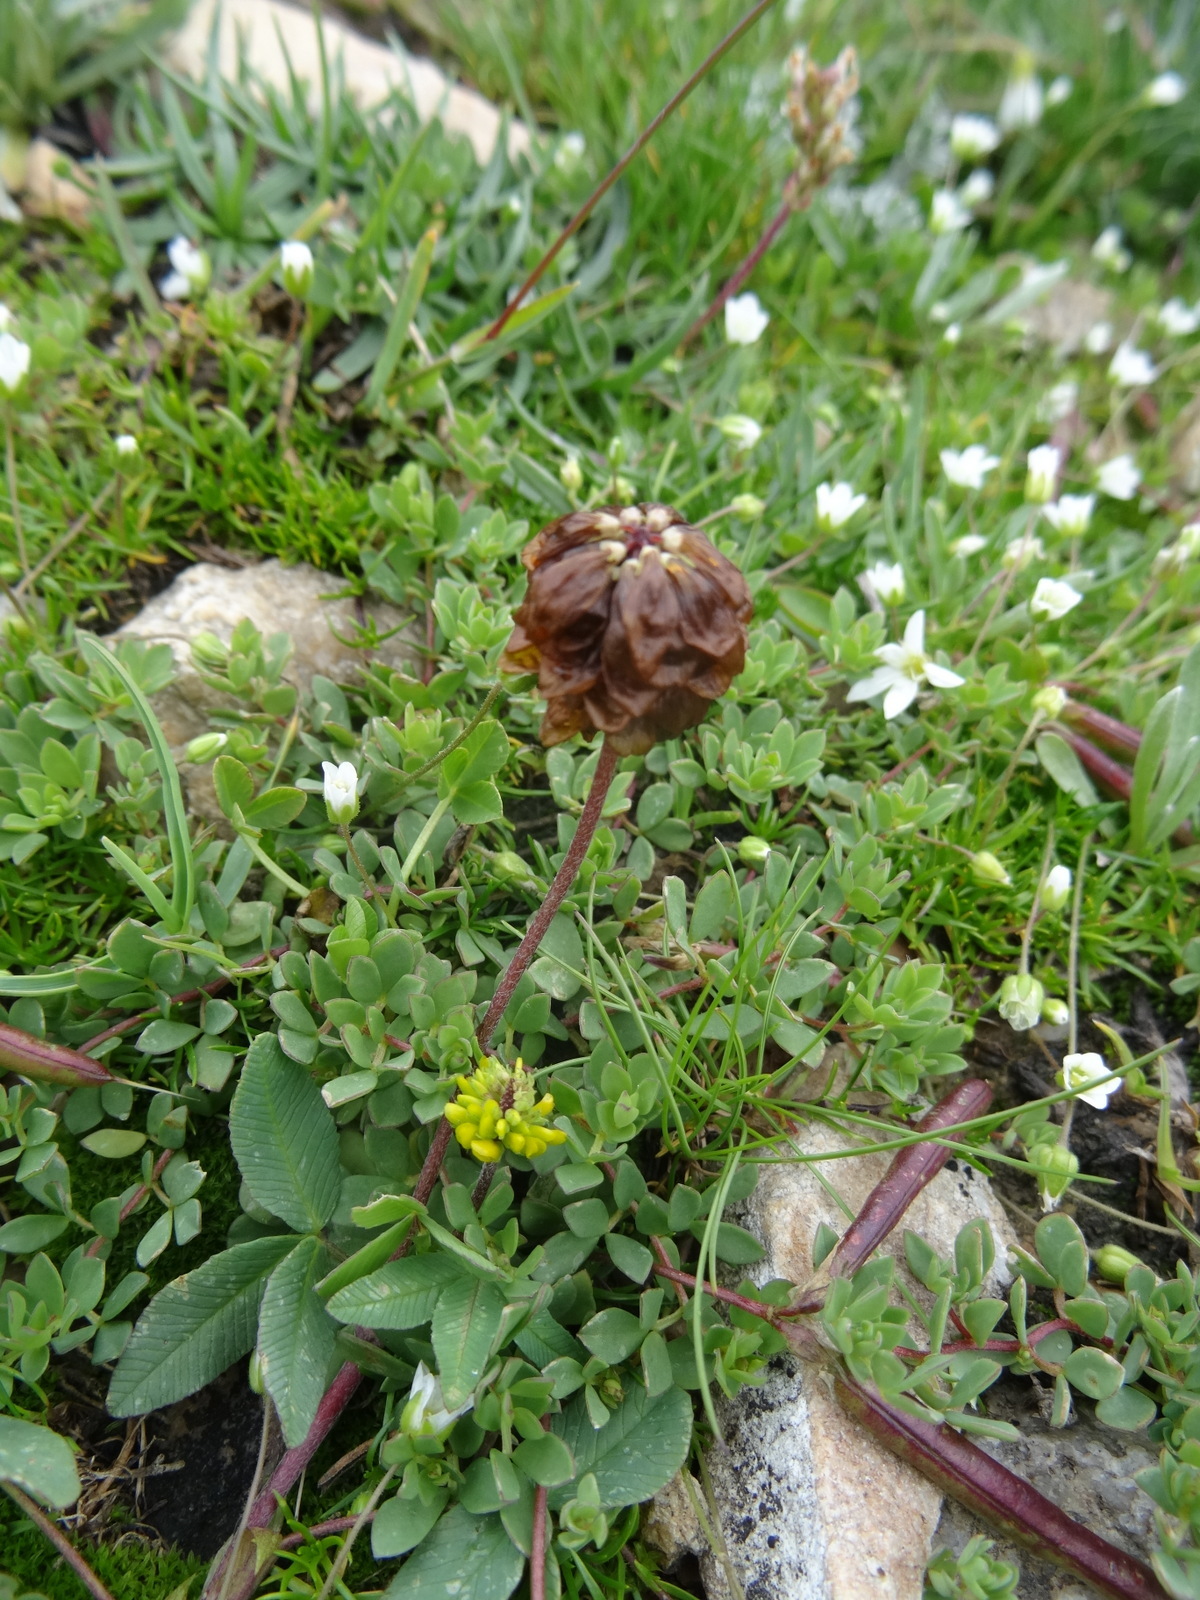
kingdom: Plantae
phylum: Tracheophyta
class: Magnoliopsida
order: Fabales
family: Fabaceae
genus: Trifolium
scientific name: Trifolium badium
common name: Brown clover
